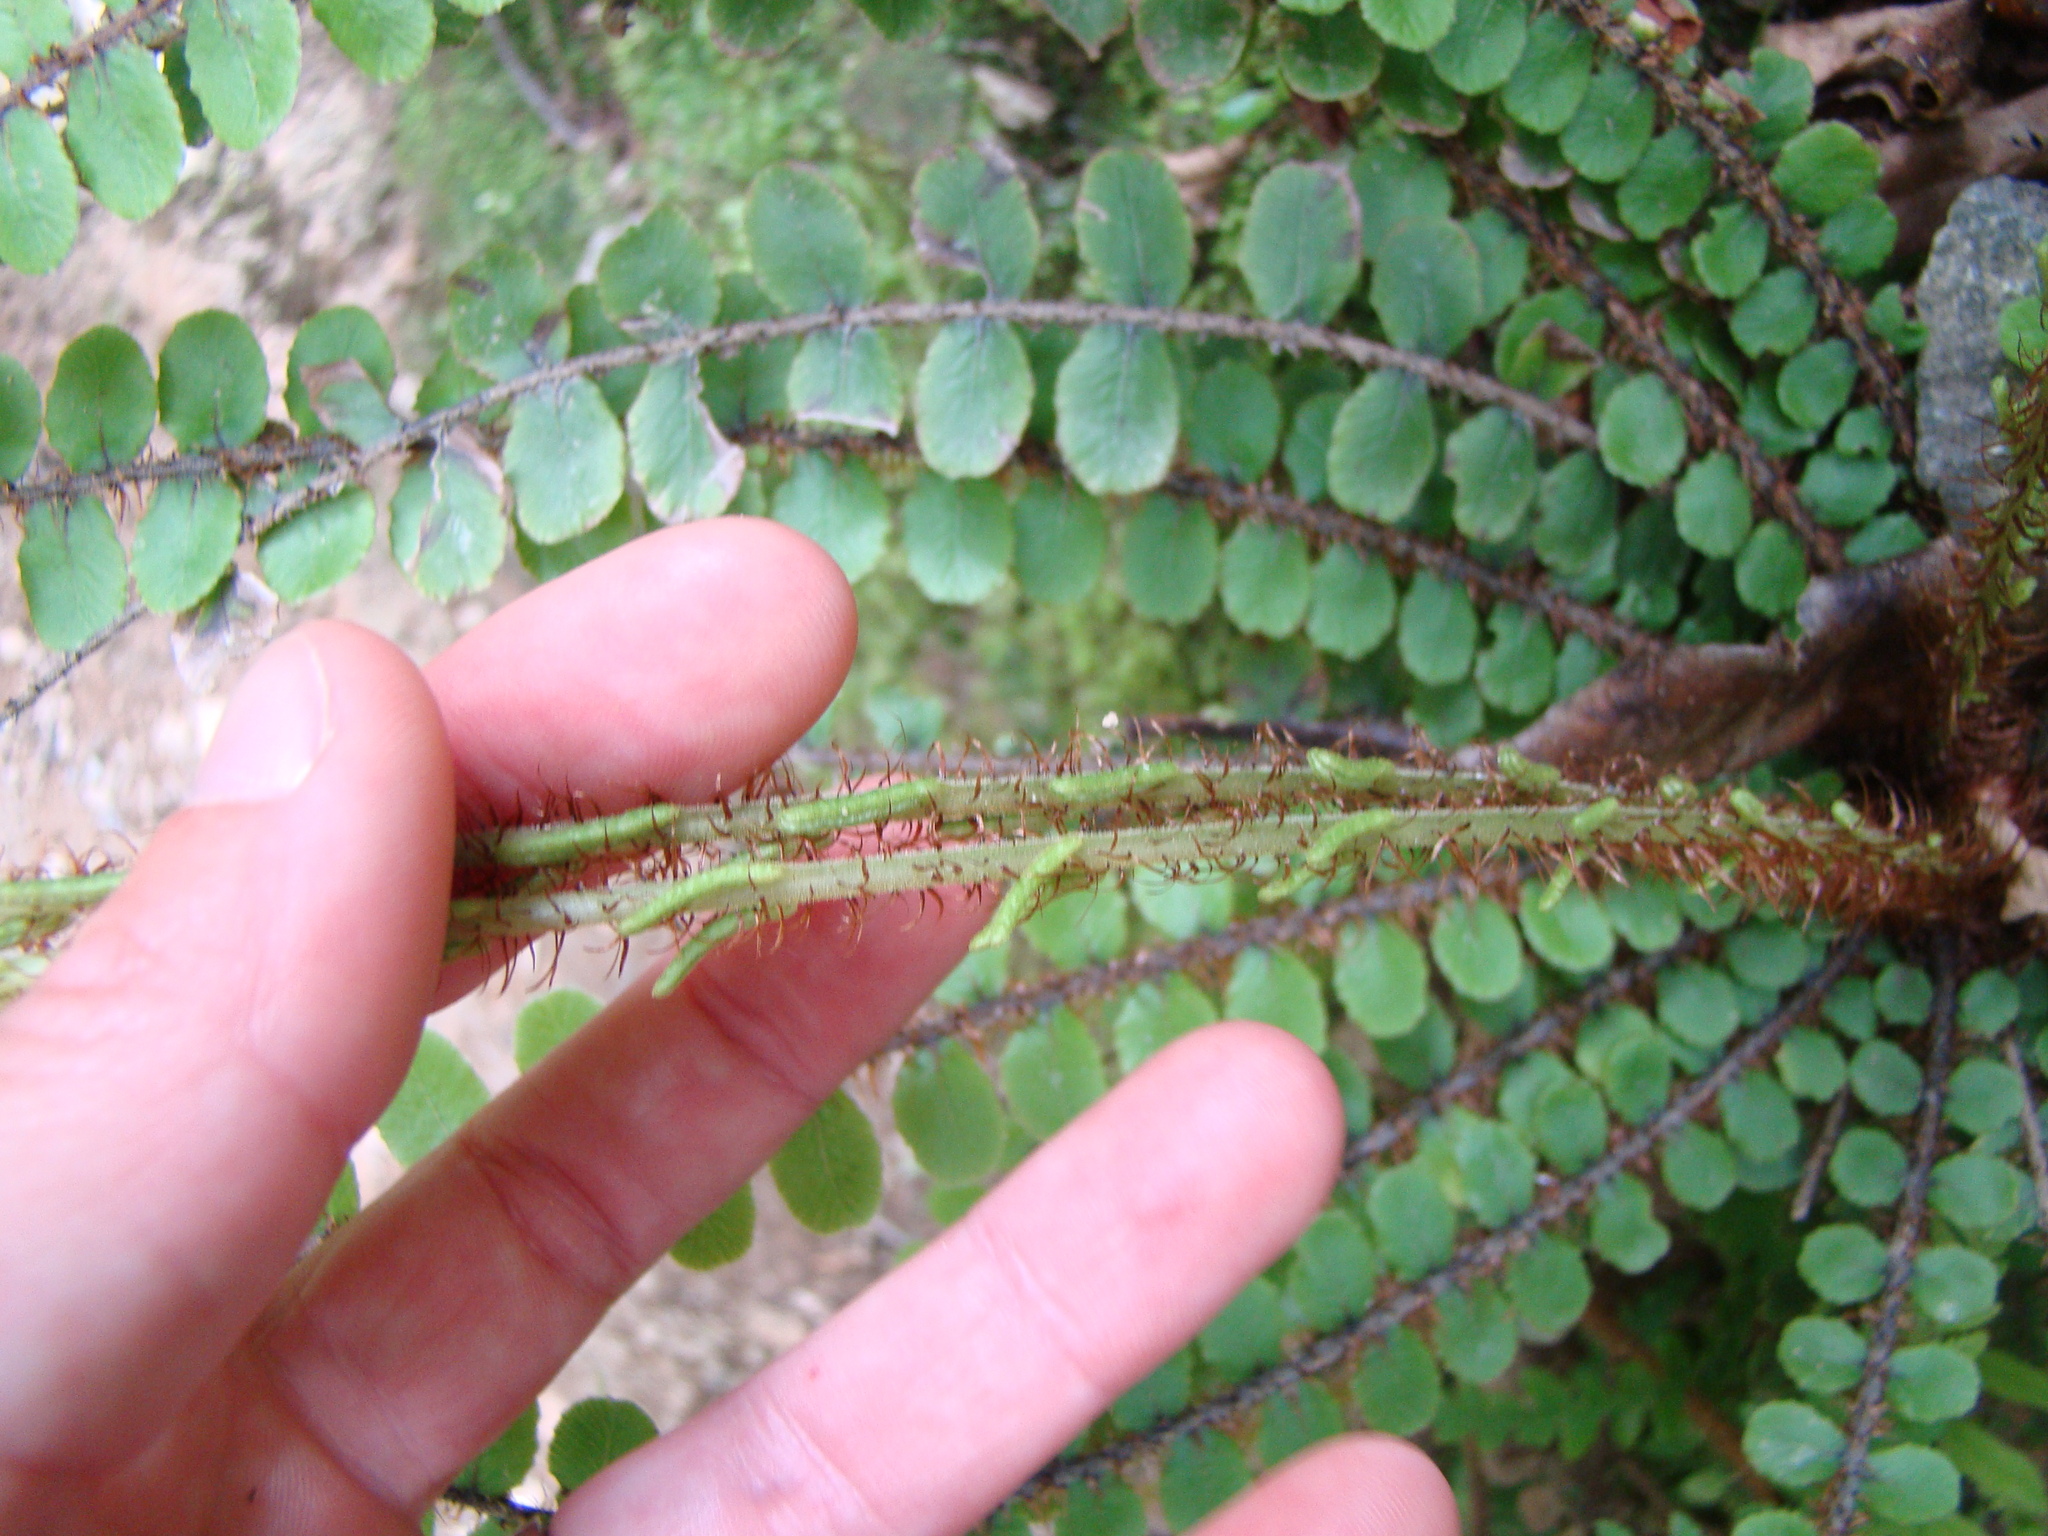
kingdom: Plantae
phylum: Tracheophyta
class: Polypodiopsida
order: Polypodiales
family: Blechnaceae
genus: Cranfillia
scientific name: Cranfillia fluviatilis
